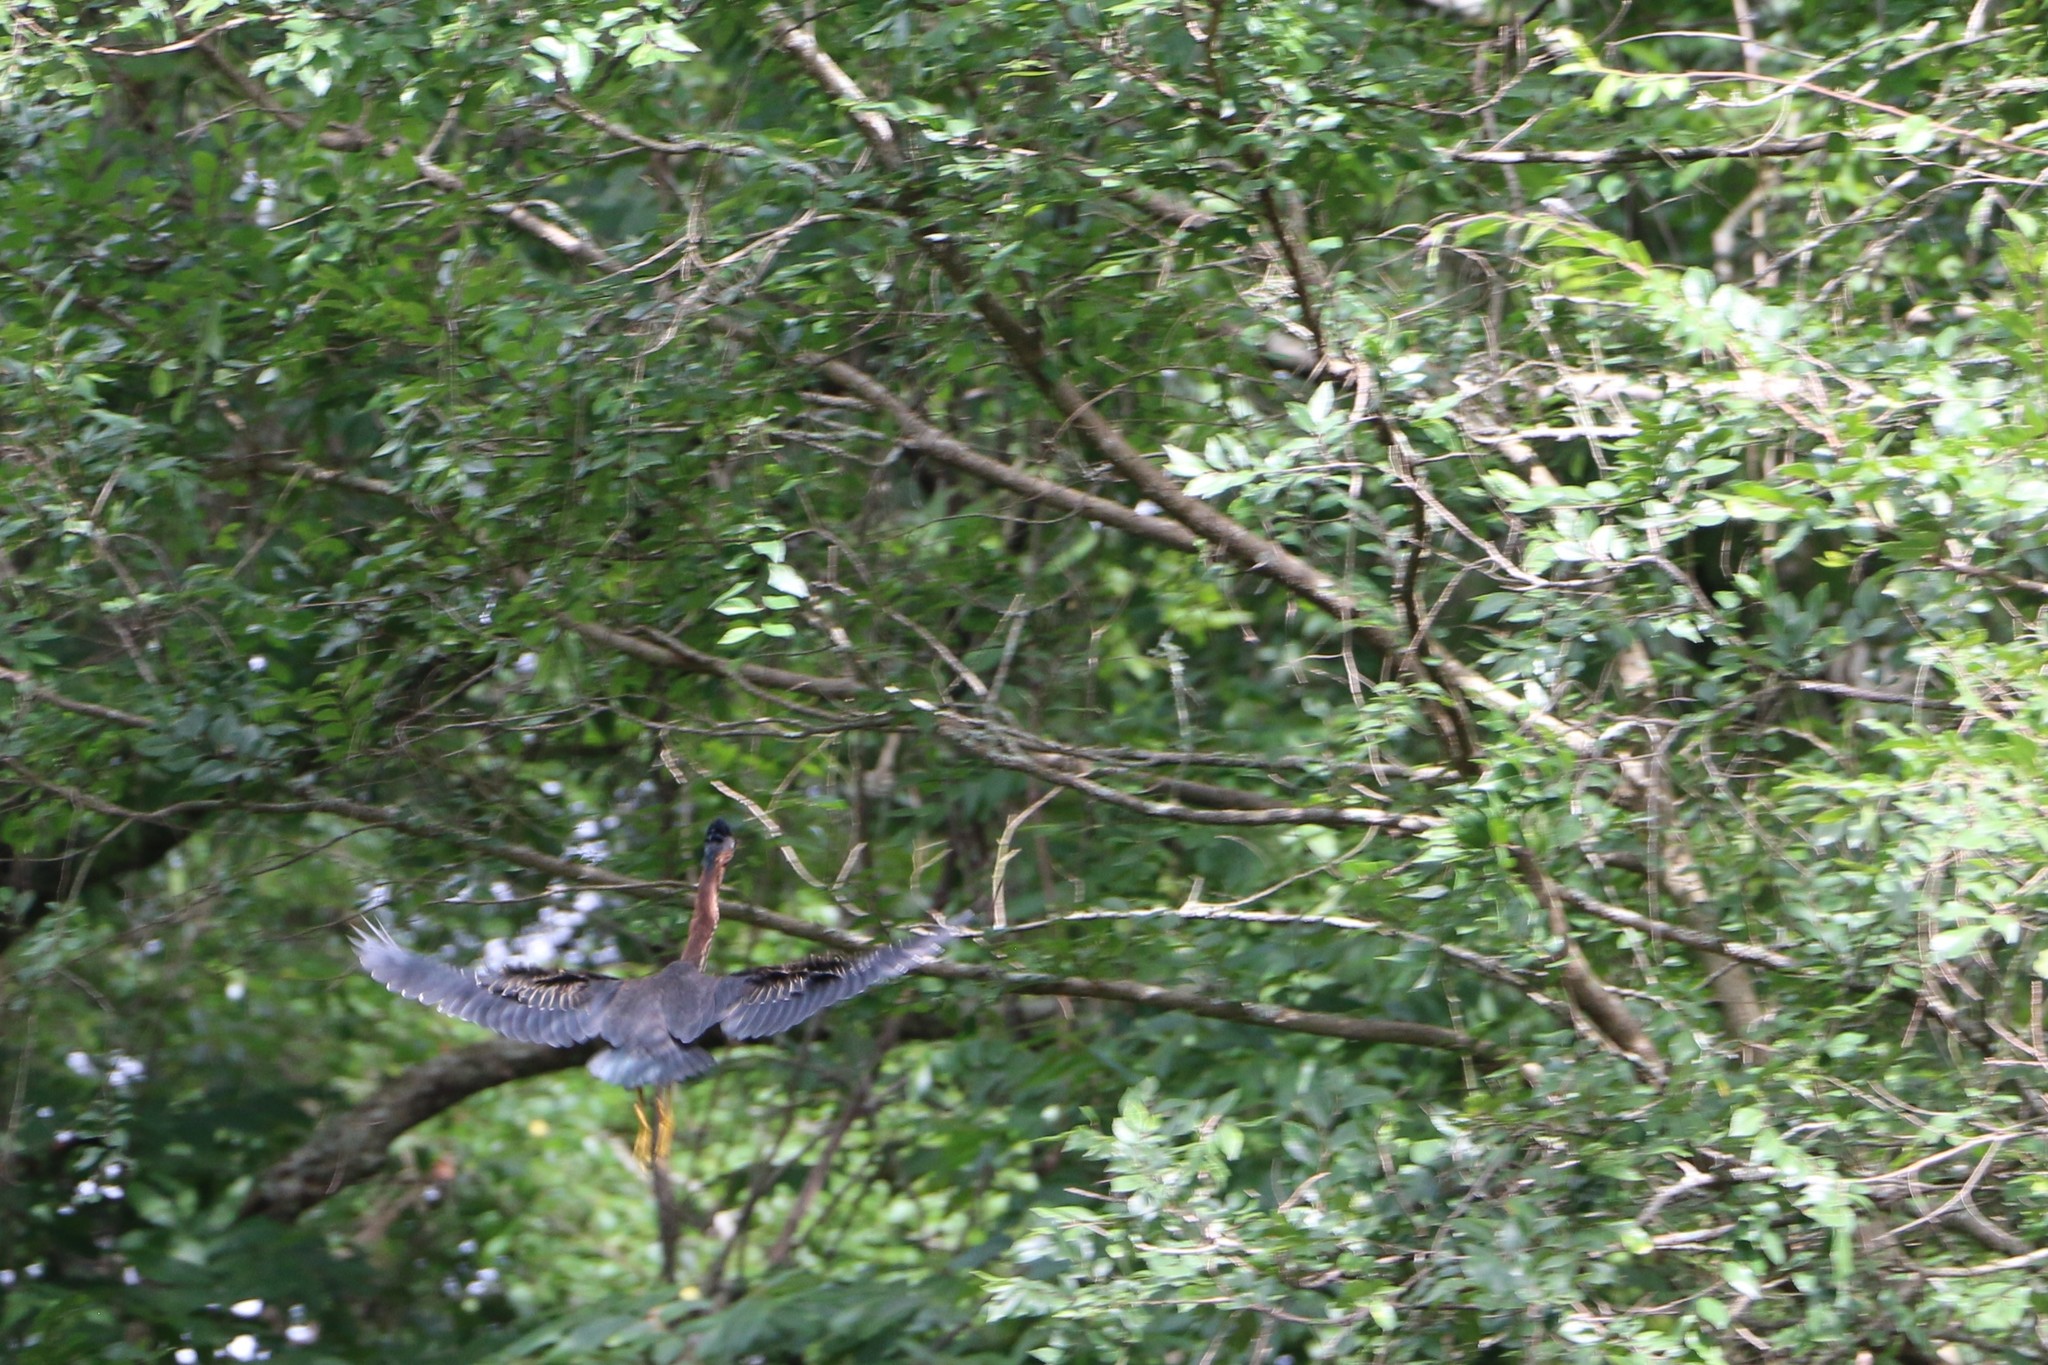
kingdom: Animalia
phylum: Chordata
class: Aves
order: Pelecaniformes
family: Ardeidae
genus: Butorides
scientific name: Butorides virescens
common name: Green heron
